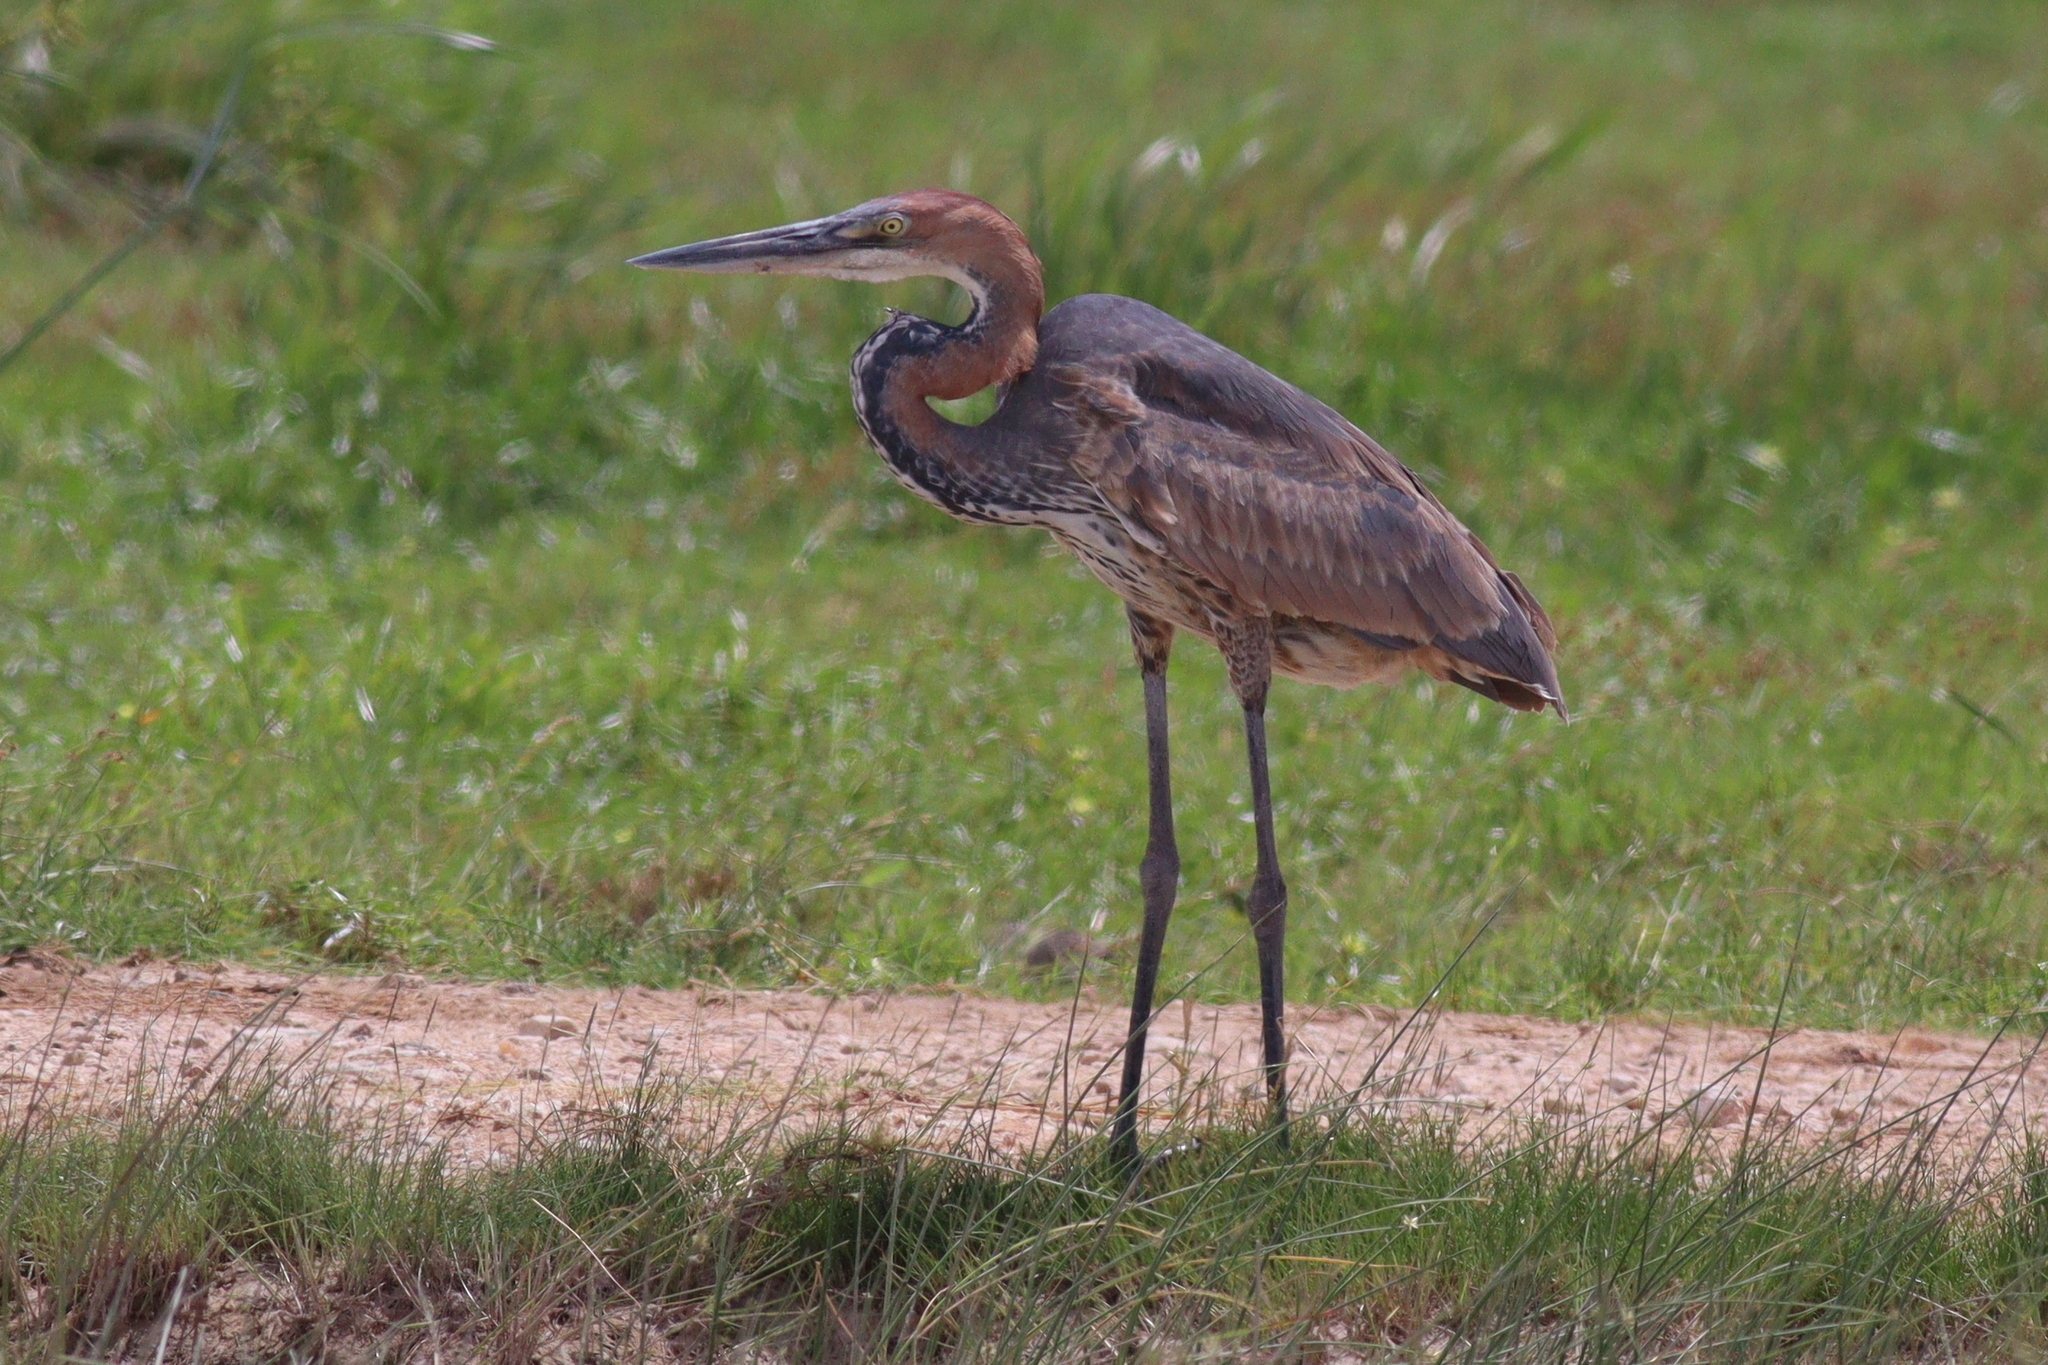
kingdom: Animalia
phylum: Chordata
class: Aves
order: Pelecaniformes
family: Ardeidae
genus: Ardea
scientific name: Ardea goliath
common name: Goliath heron
